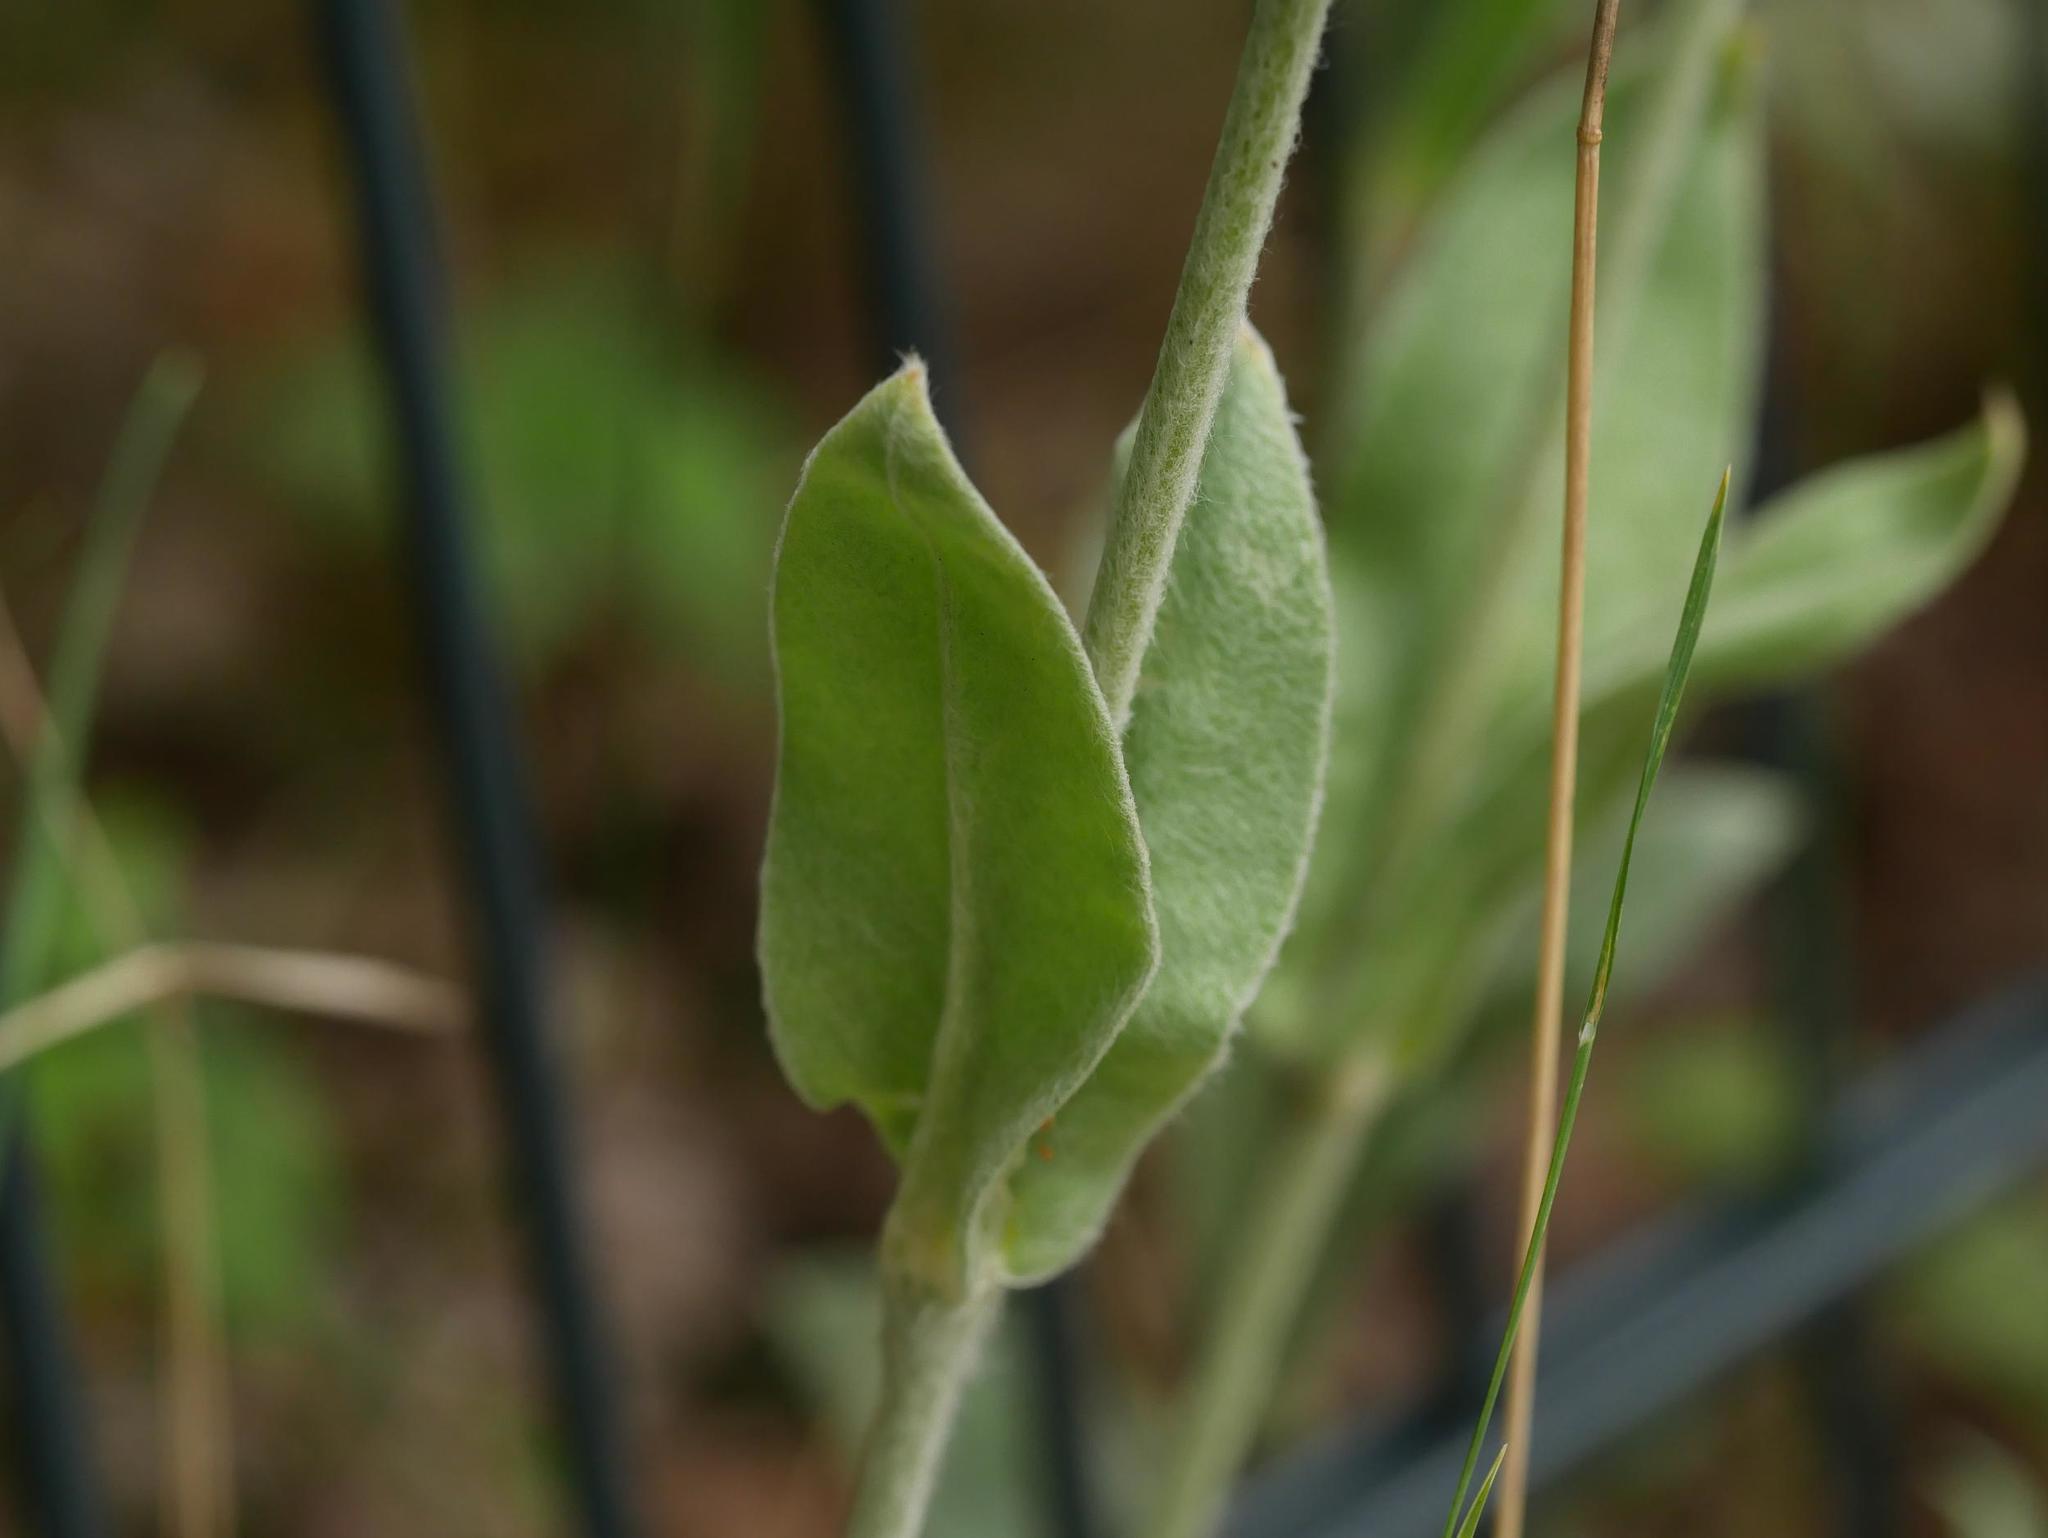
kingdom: Plantae
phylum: Tracheophyta
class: Magnoliopsida
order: Caryophyllales
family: Caryophyllaceae
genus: Silene
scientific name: Silene coronaria
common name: Rose campion
